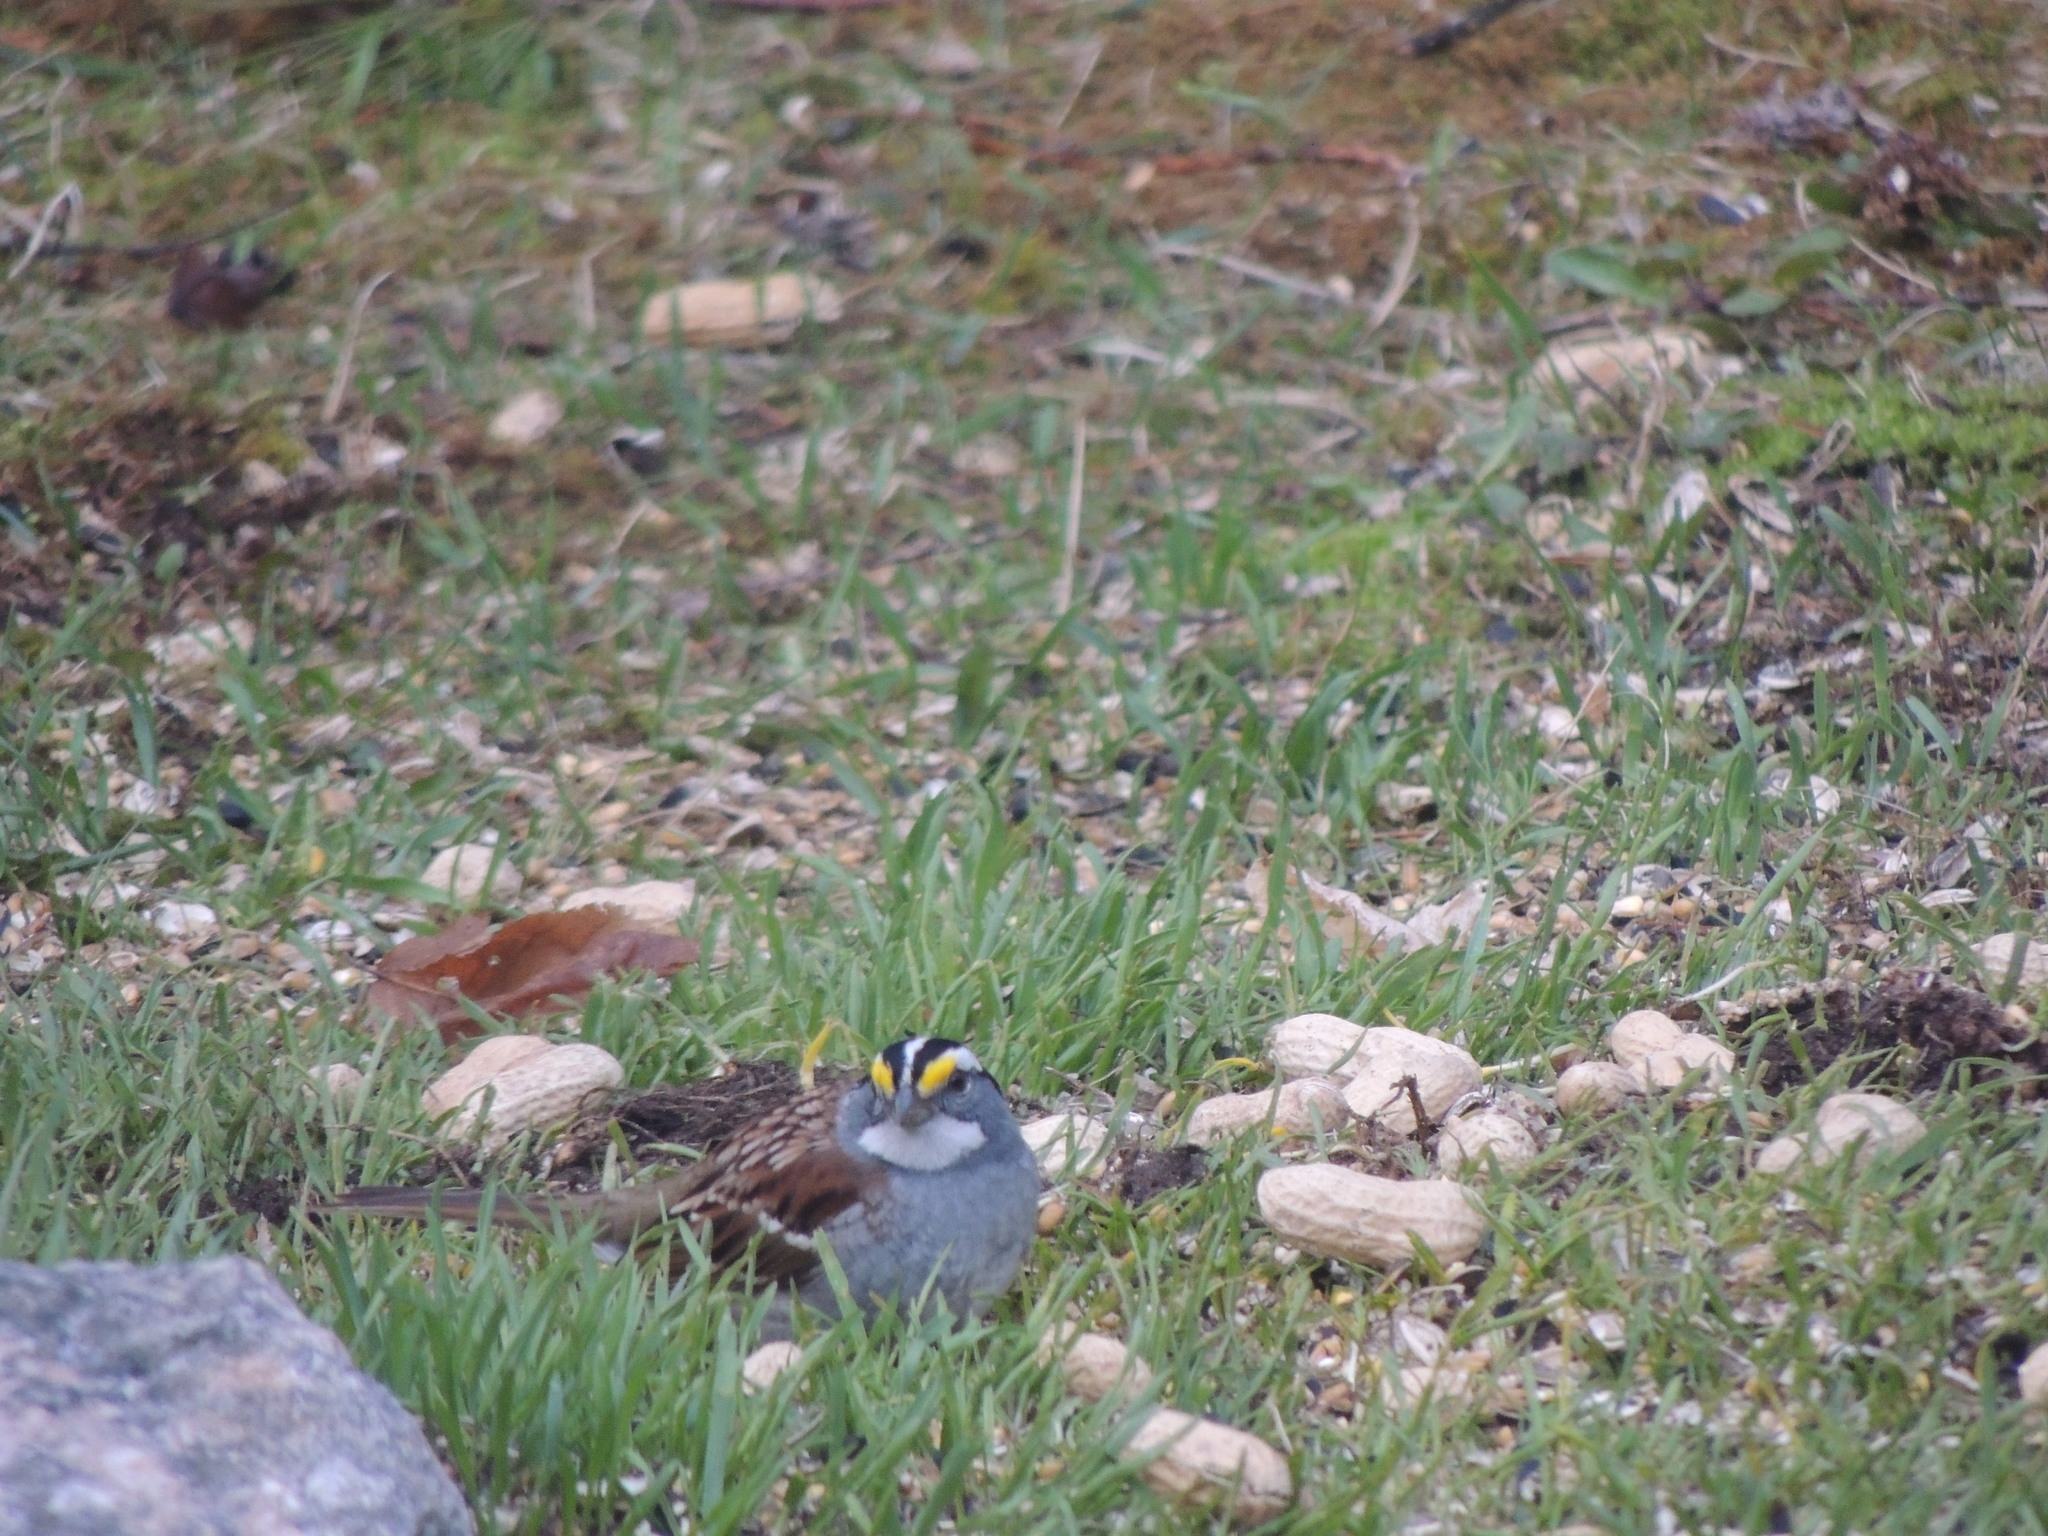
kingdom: Animalia
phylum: Chordata
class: Aves
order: Passeriformes
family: Passerellidae
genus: Zonotrichia
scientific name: Zonotrichia albicollis
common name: White-throated sparrow
